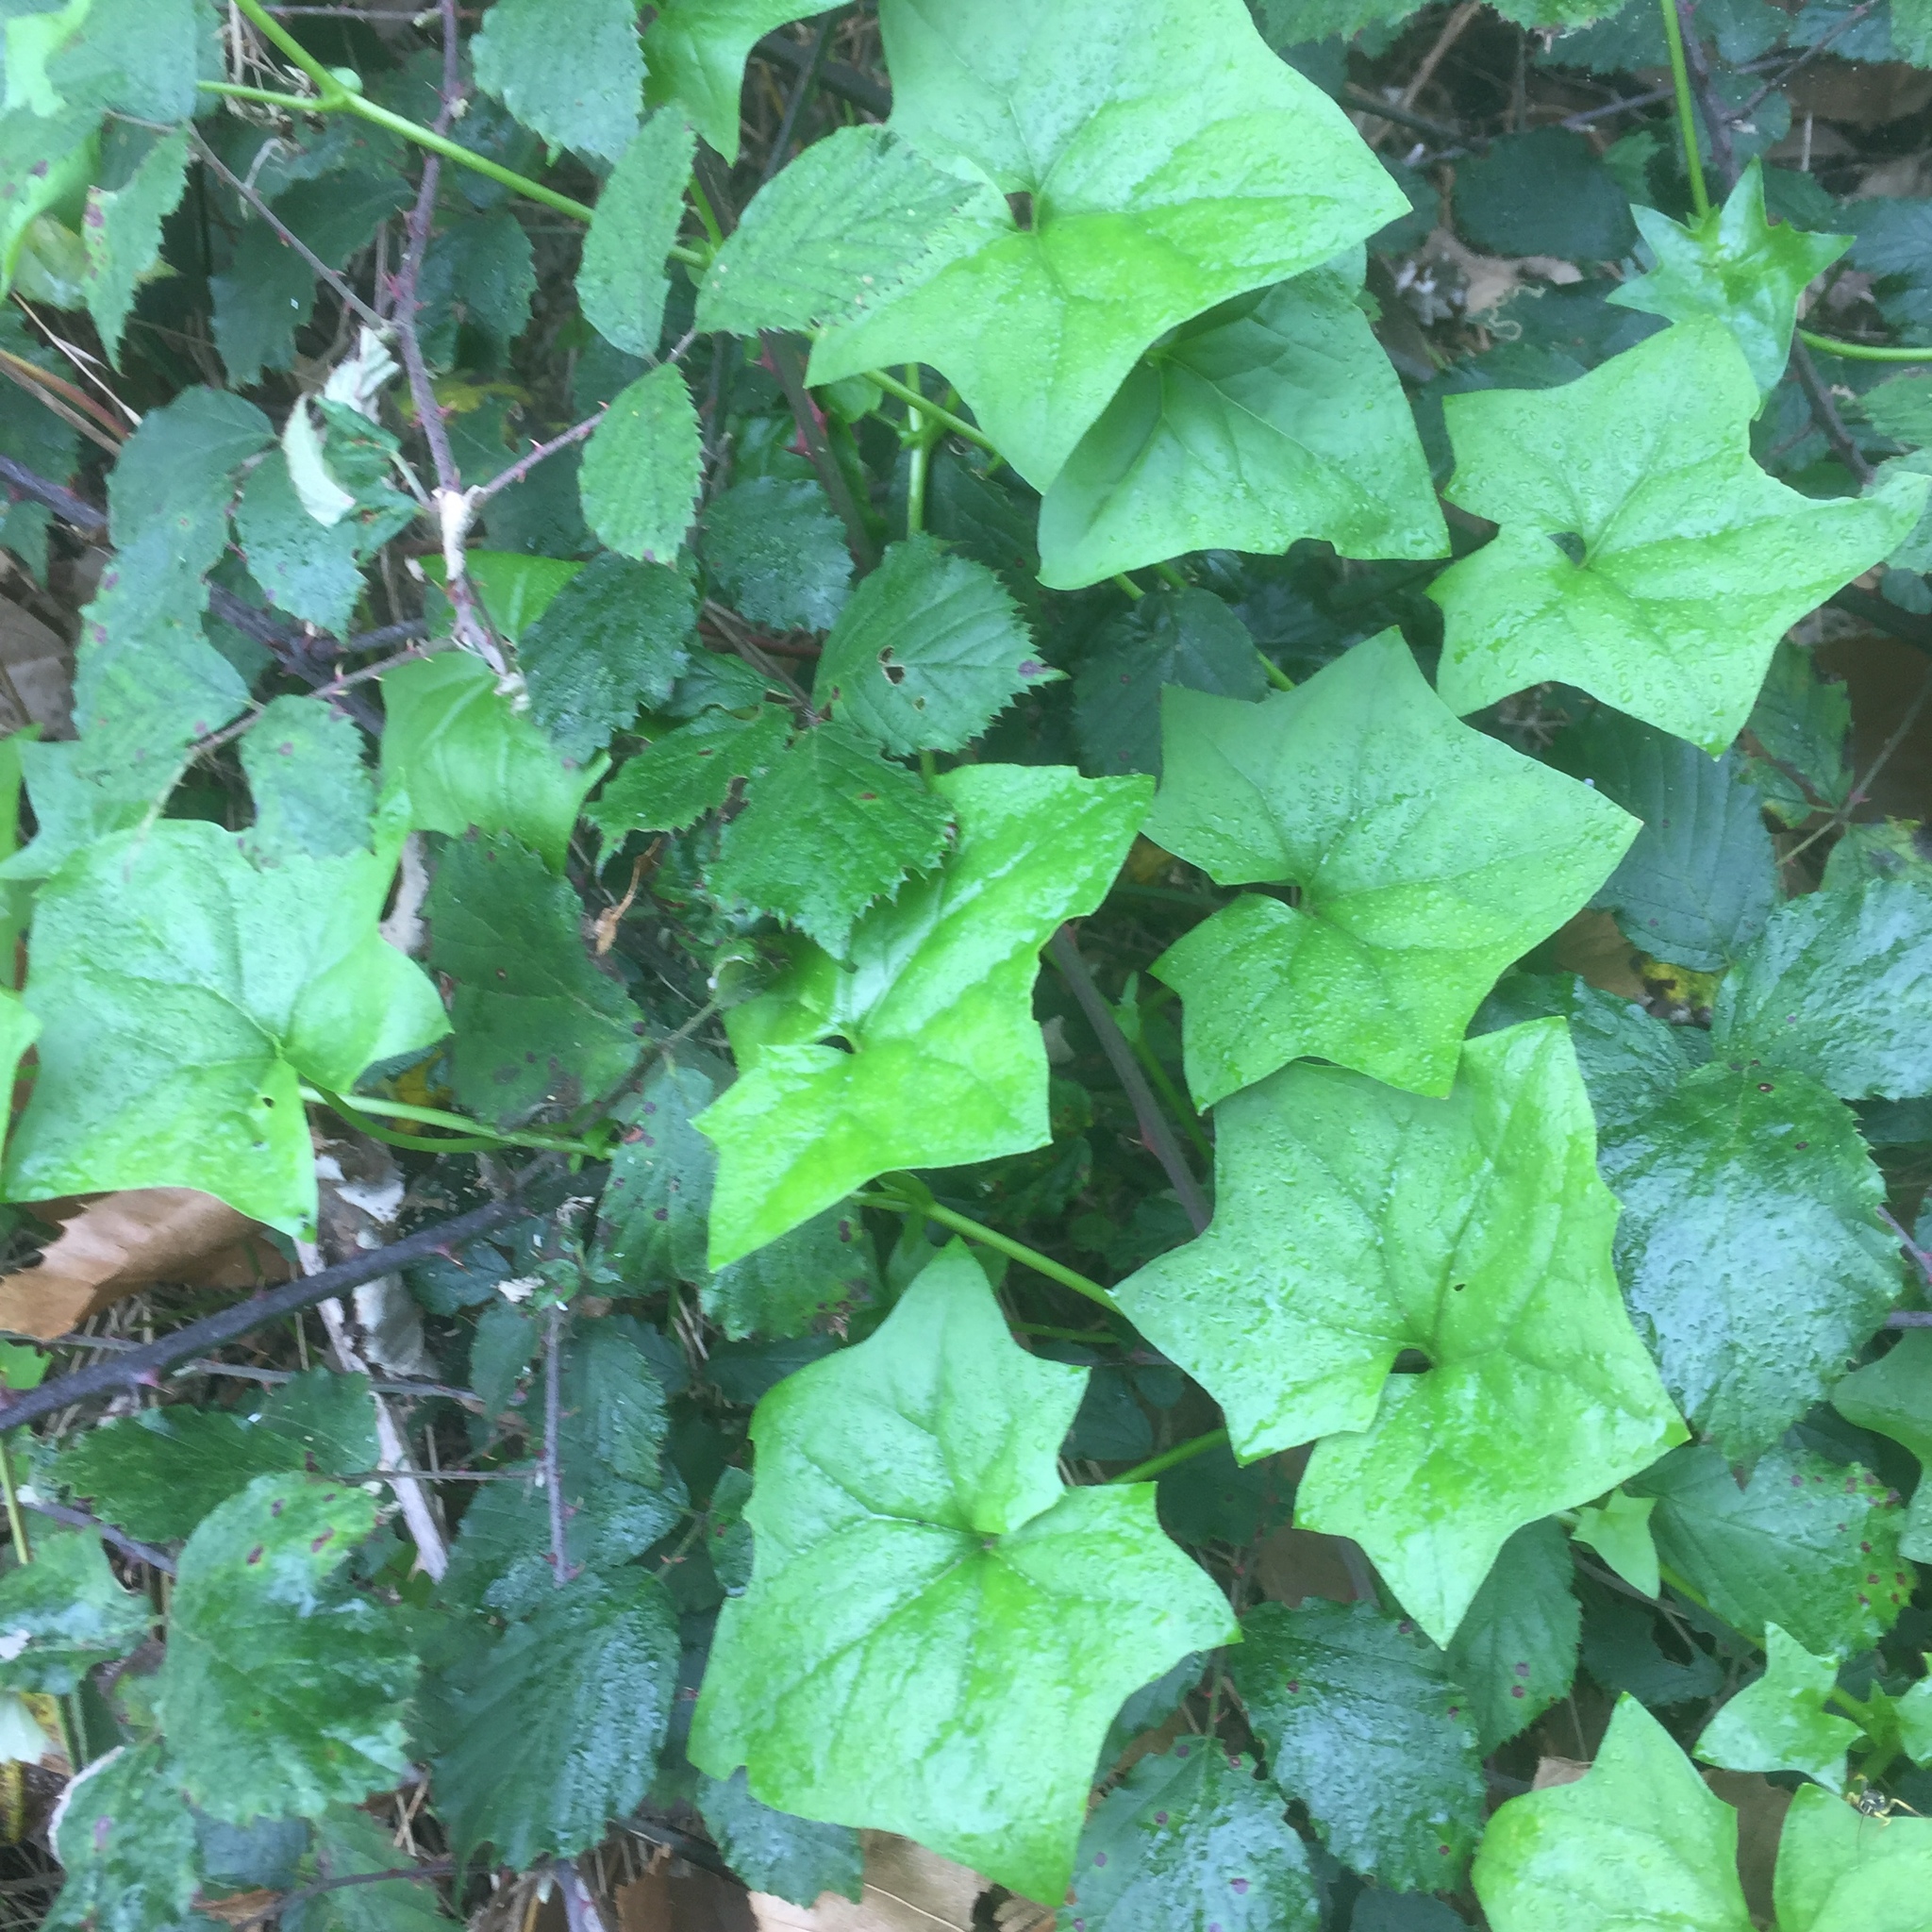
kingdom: Plantae
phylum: Tracheophyta
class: Magnoliopsida
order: Asterales
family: Asteraceae
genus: Delairea
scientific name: Delairea odorata
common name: Cape-ivy
